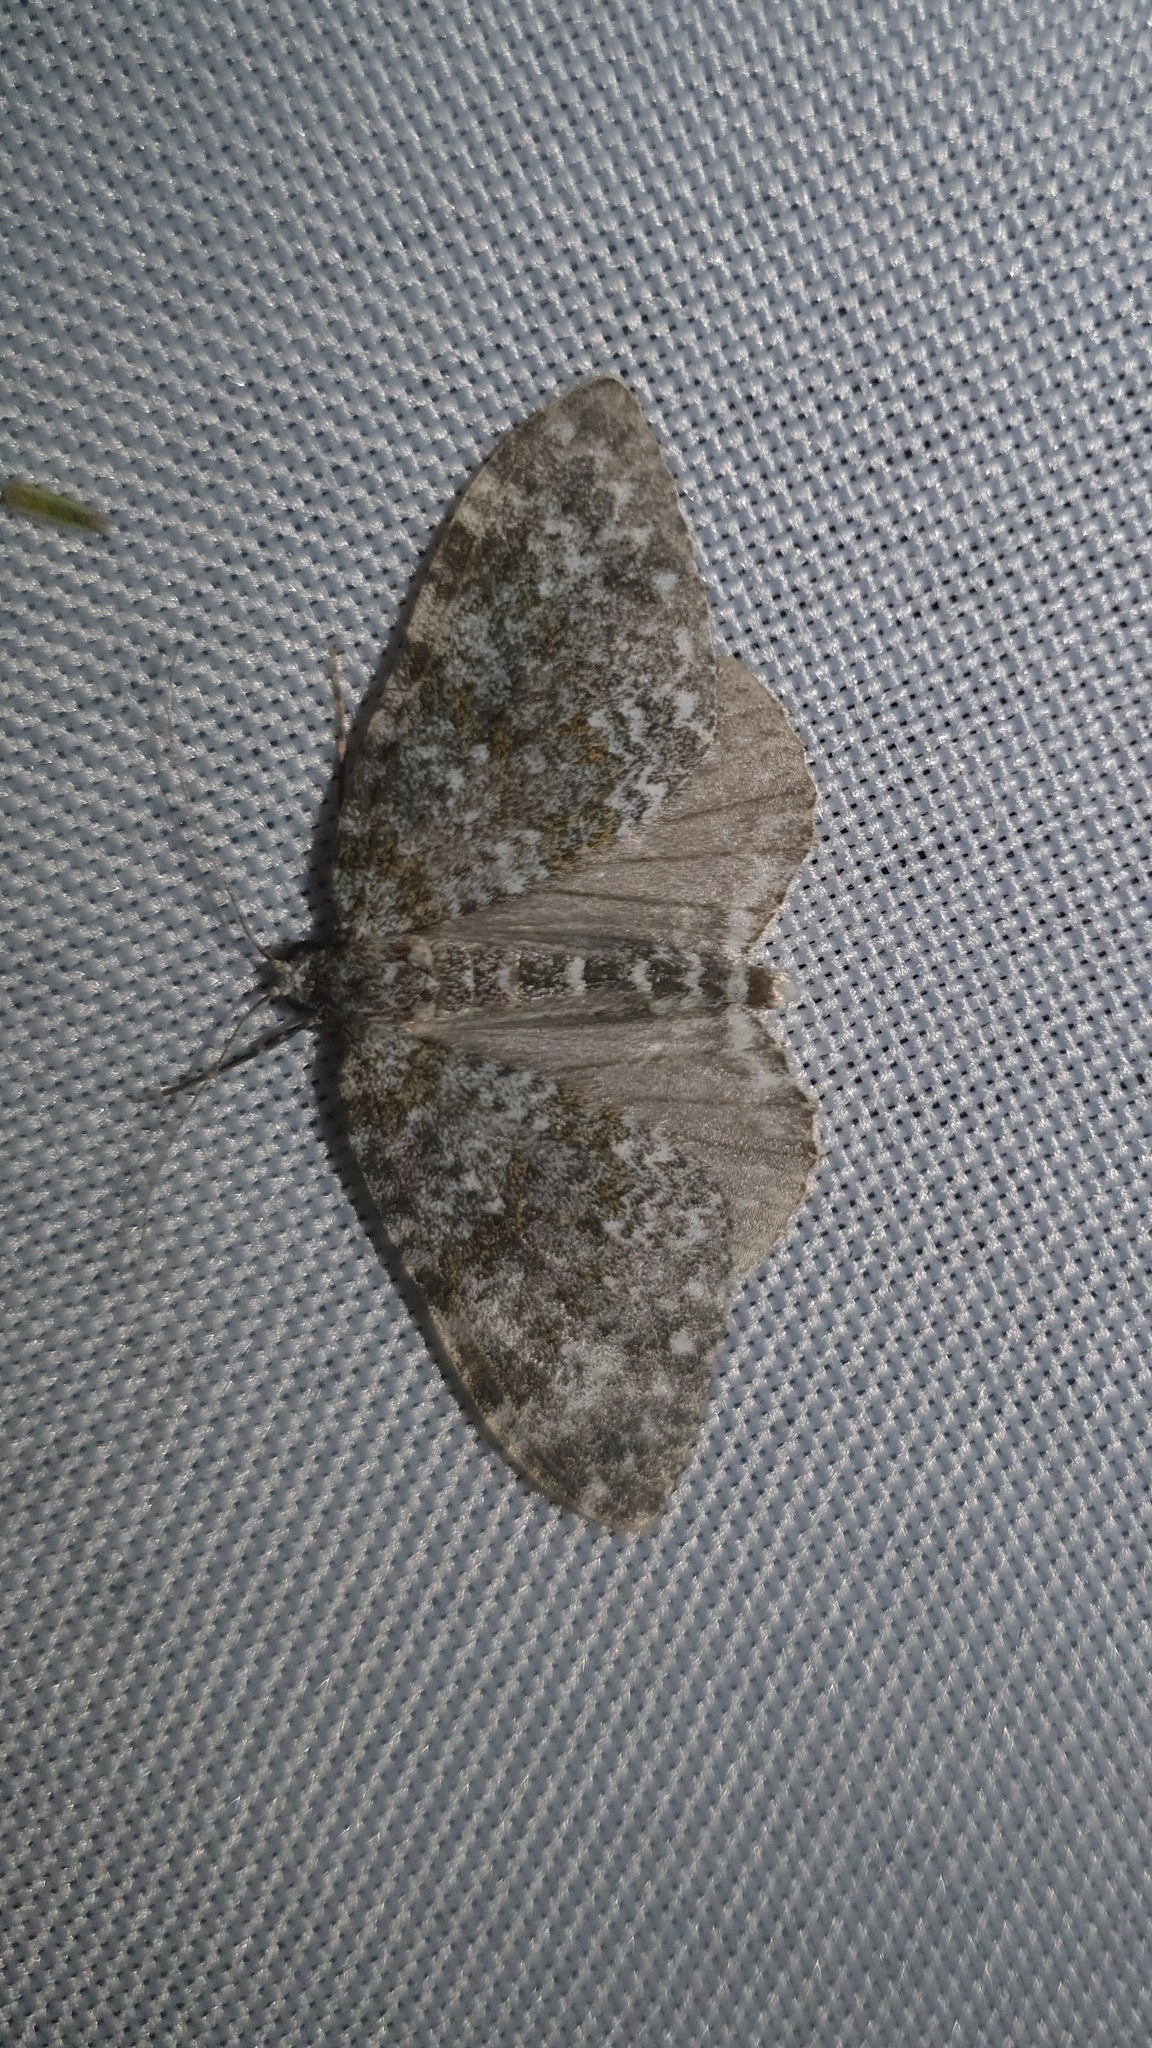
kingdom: Animalia
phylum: Arthropoda
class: Insecta
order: Lepidoptera
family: Geometridae
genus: Entephria
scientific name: Entephria caeruleata
